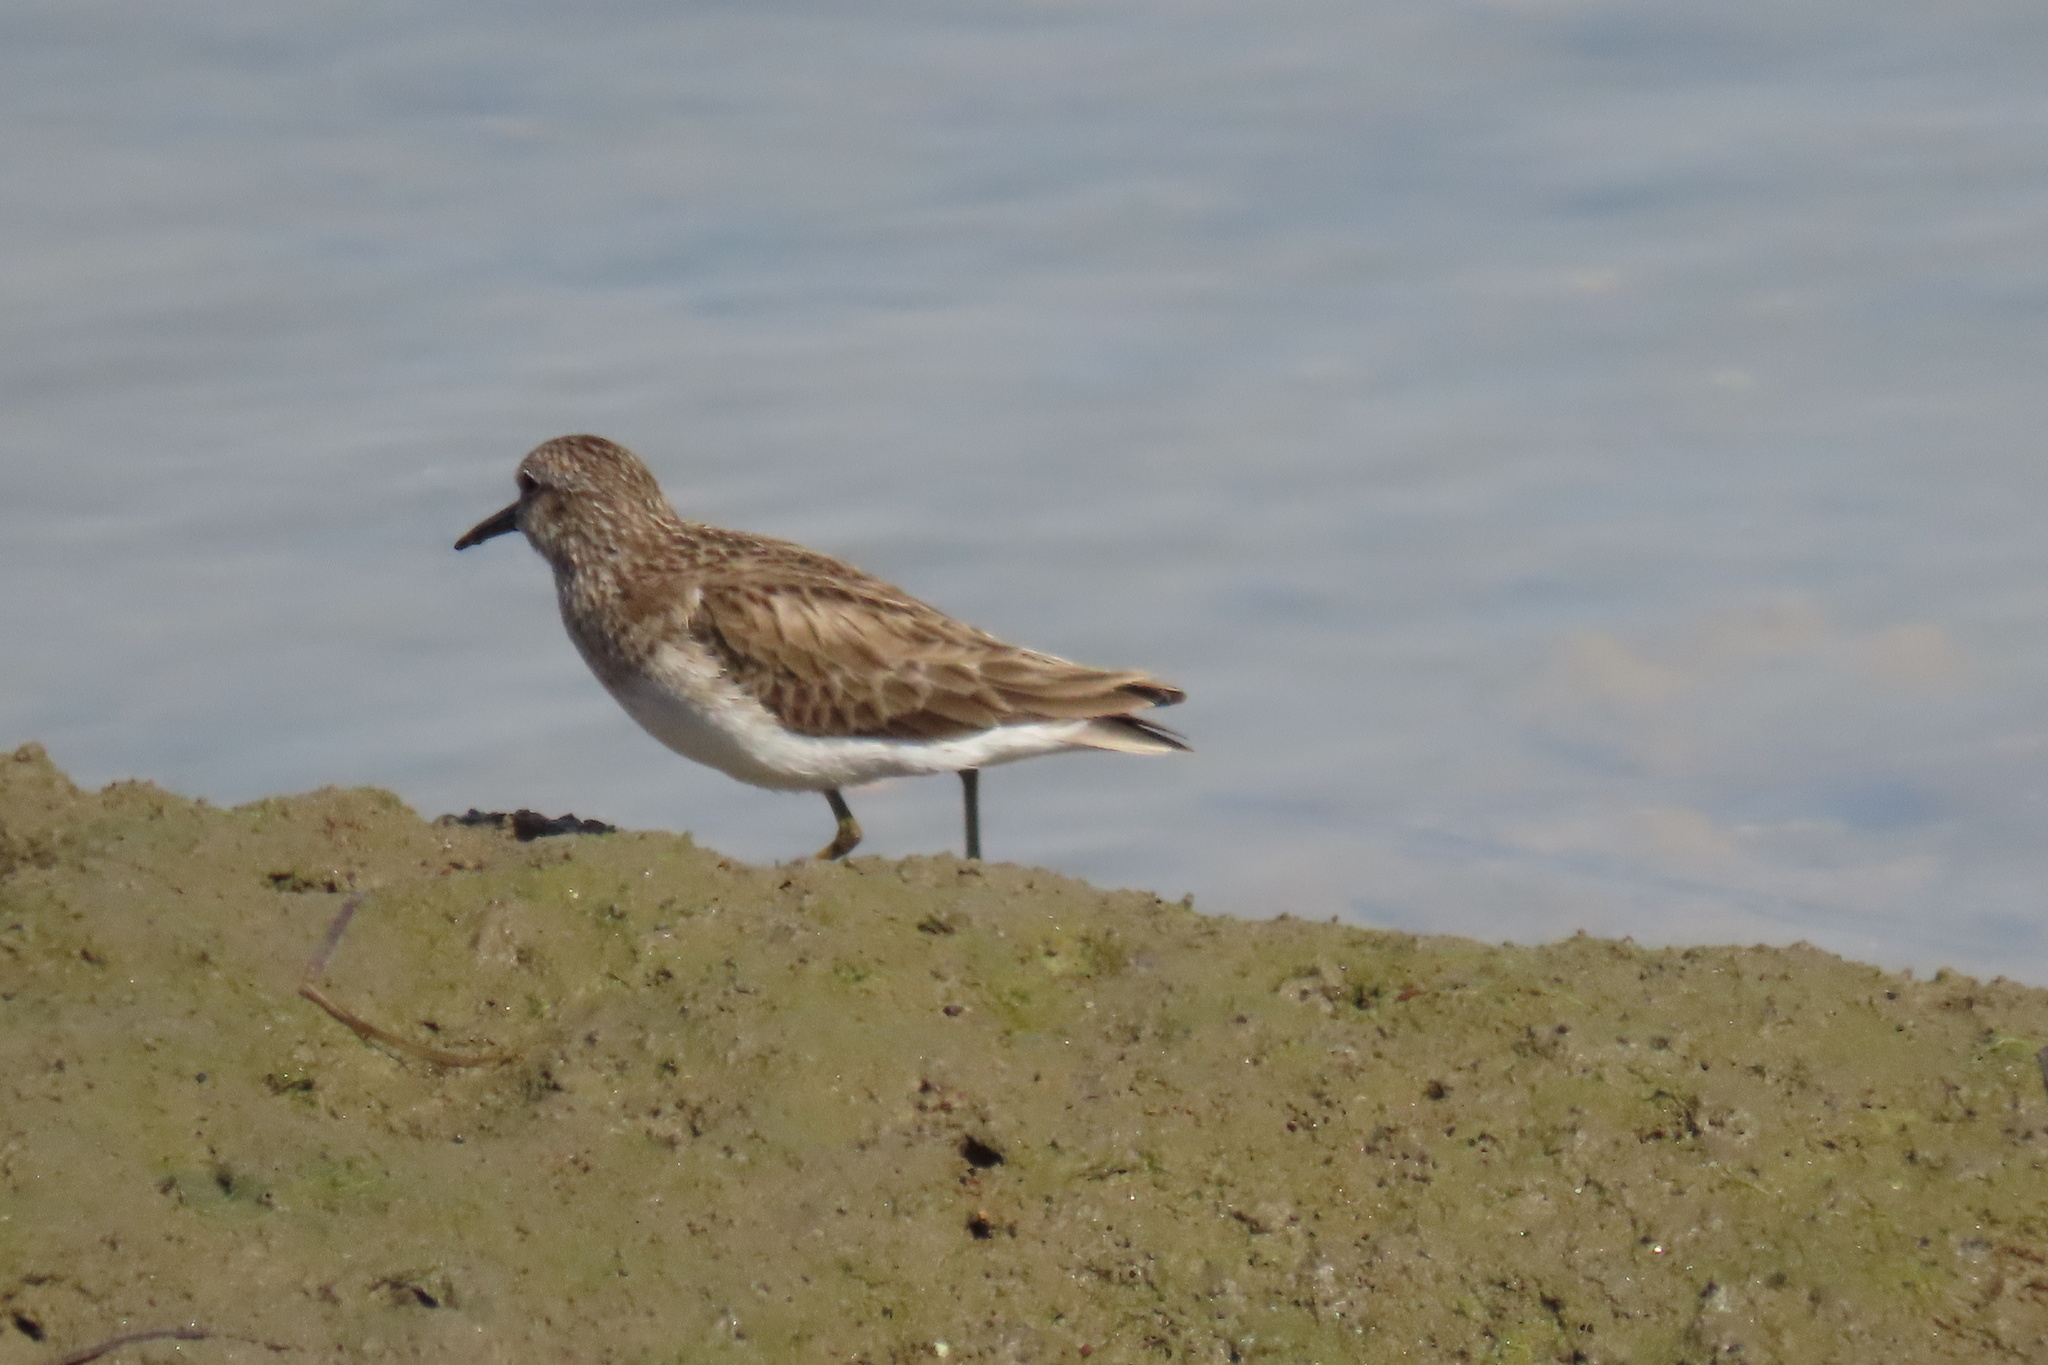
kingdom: Animalia
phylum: Chordata
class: Aves
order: Charadriiformes
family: Scolopacidae
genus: Calidris
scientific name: Calidris minutilla
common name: Least sandpiper
